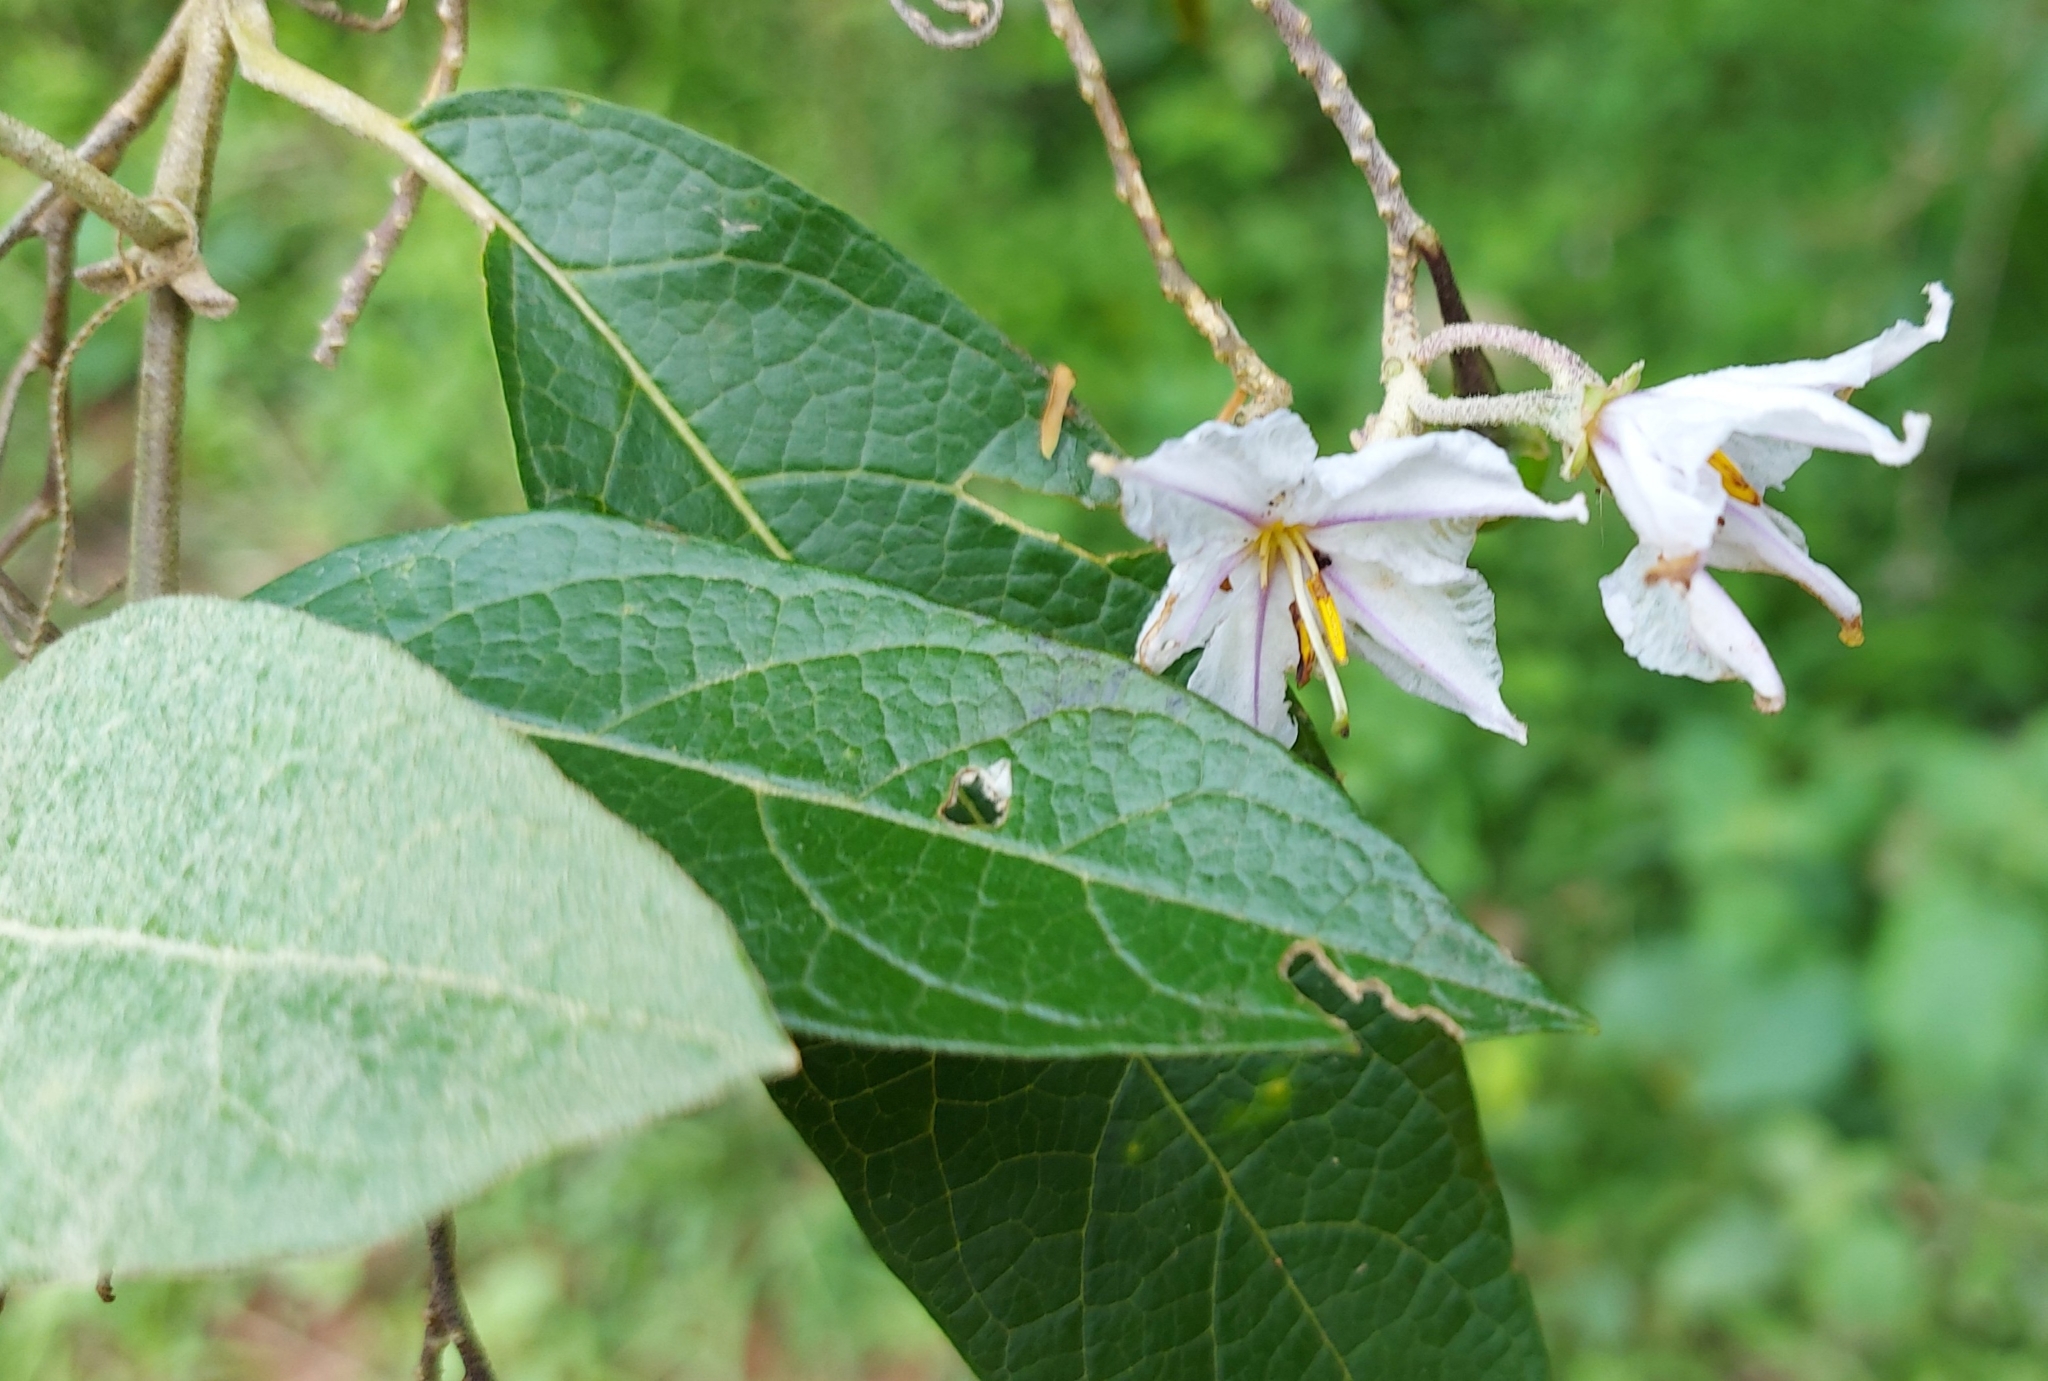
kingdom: Plantae
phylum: Tracheophyta
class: Magnoliopsida
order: Solanales
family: Solanaceae
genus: Solanum
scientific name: Solanum paniculatum
